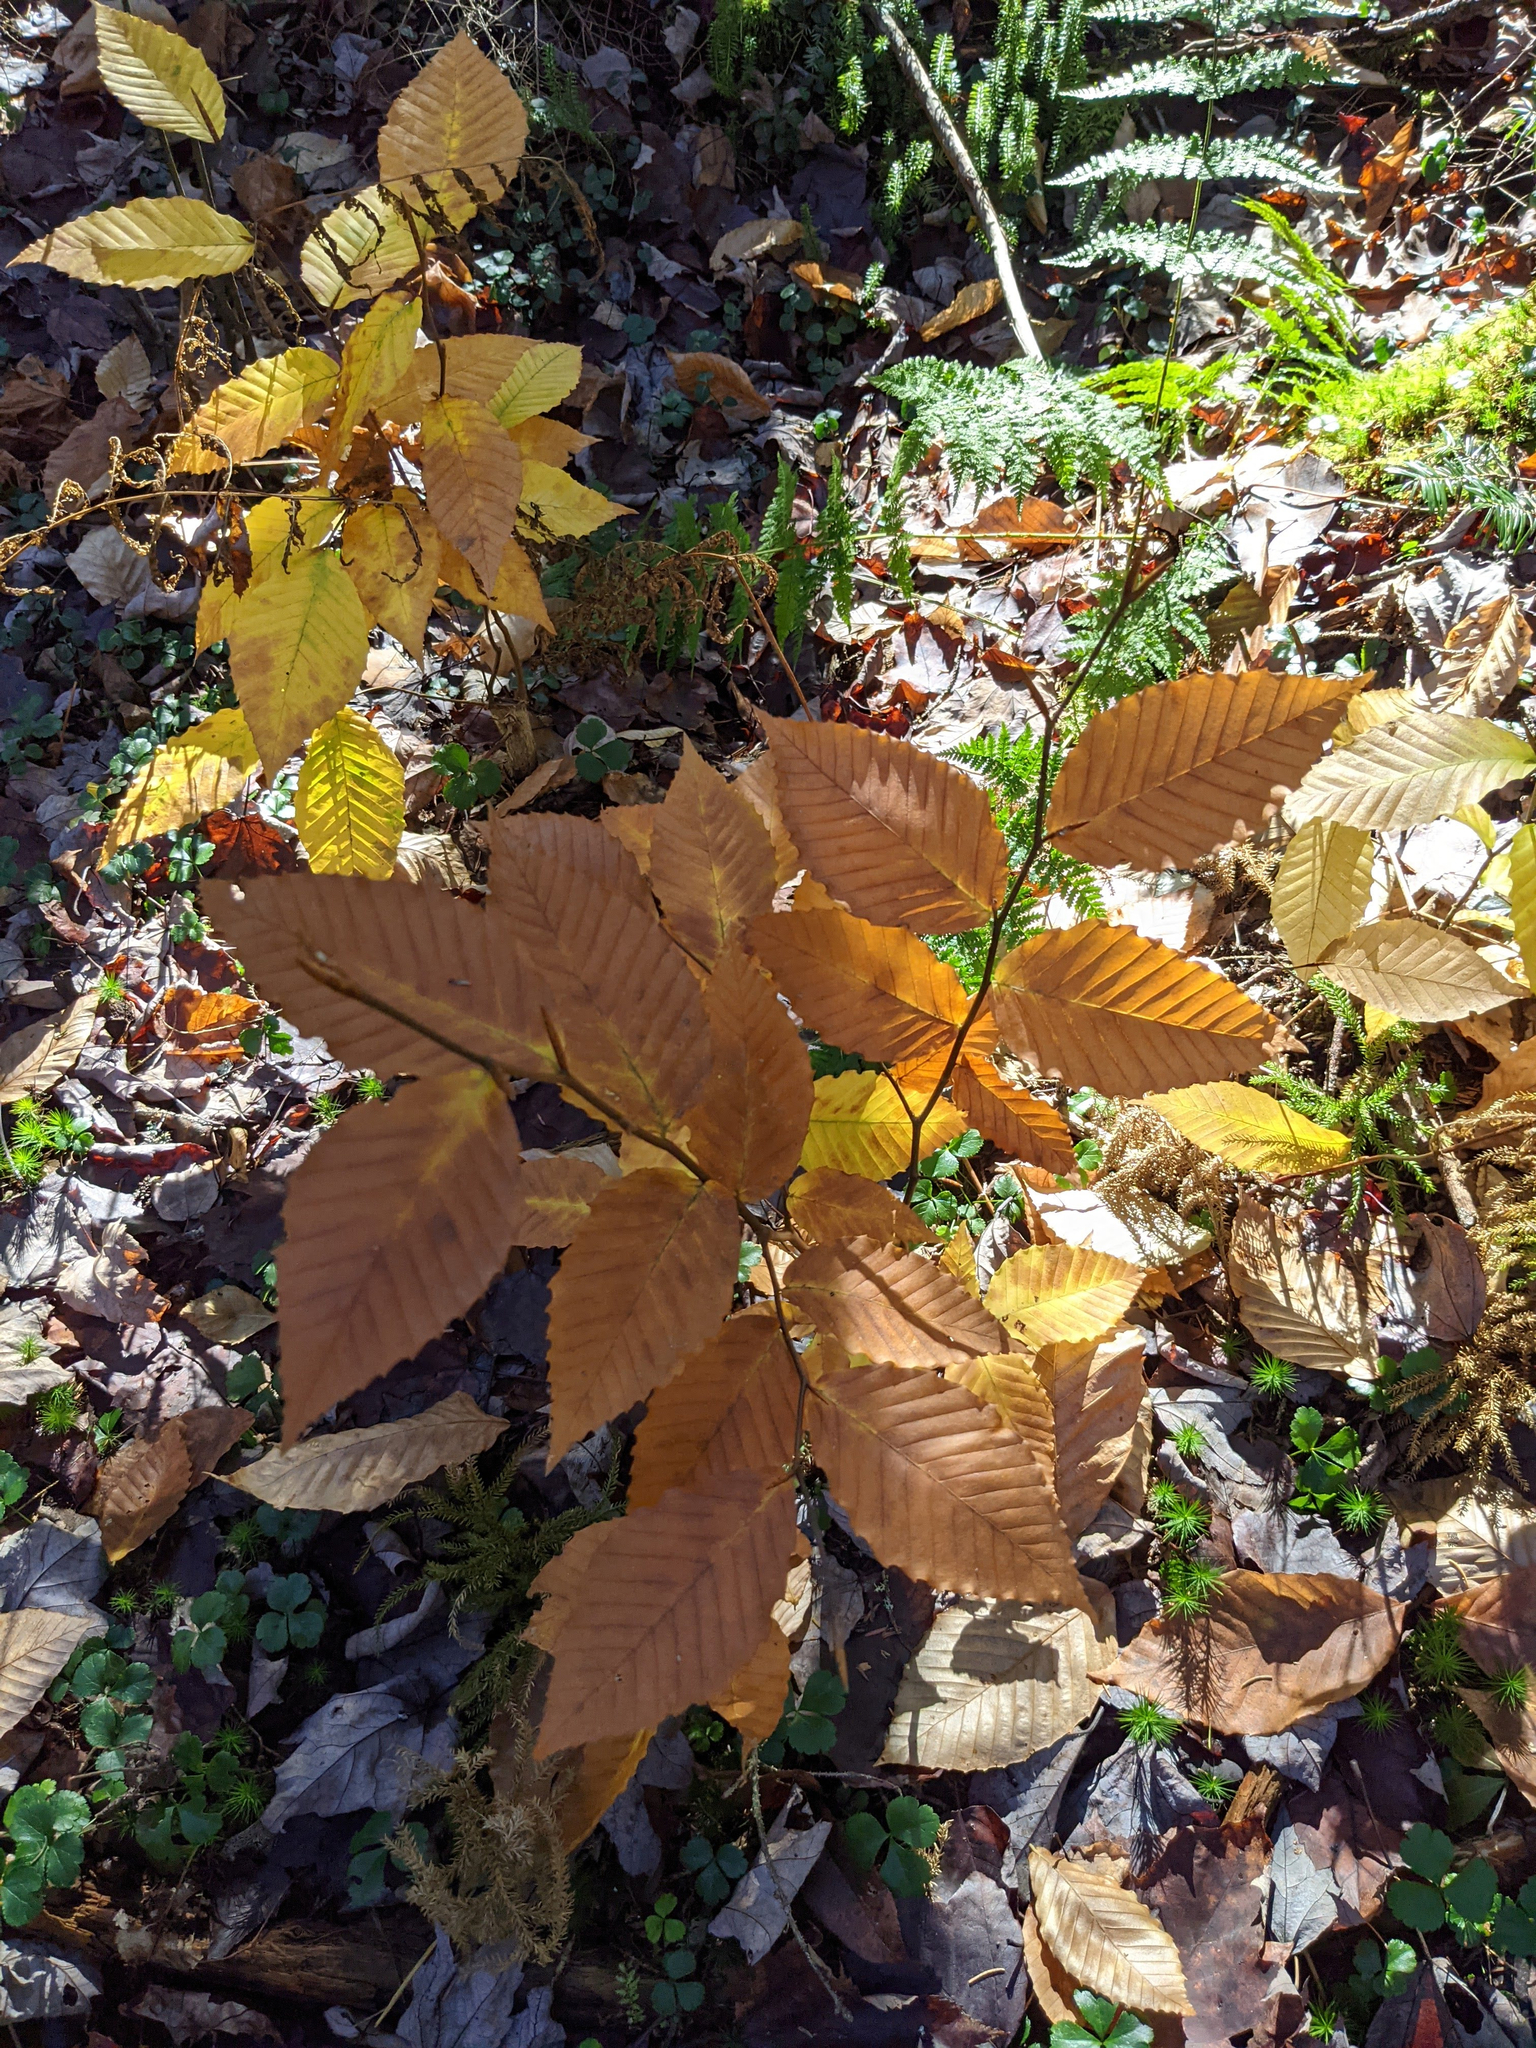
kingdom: Plantae
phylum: Tracheophyta
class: Magnoliopsida
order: Fagales
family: Fagaceae
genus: Fagus
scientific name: Fagus grandifolia
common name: American beech
